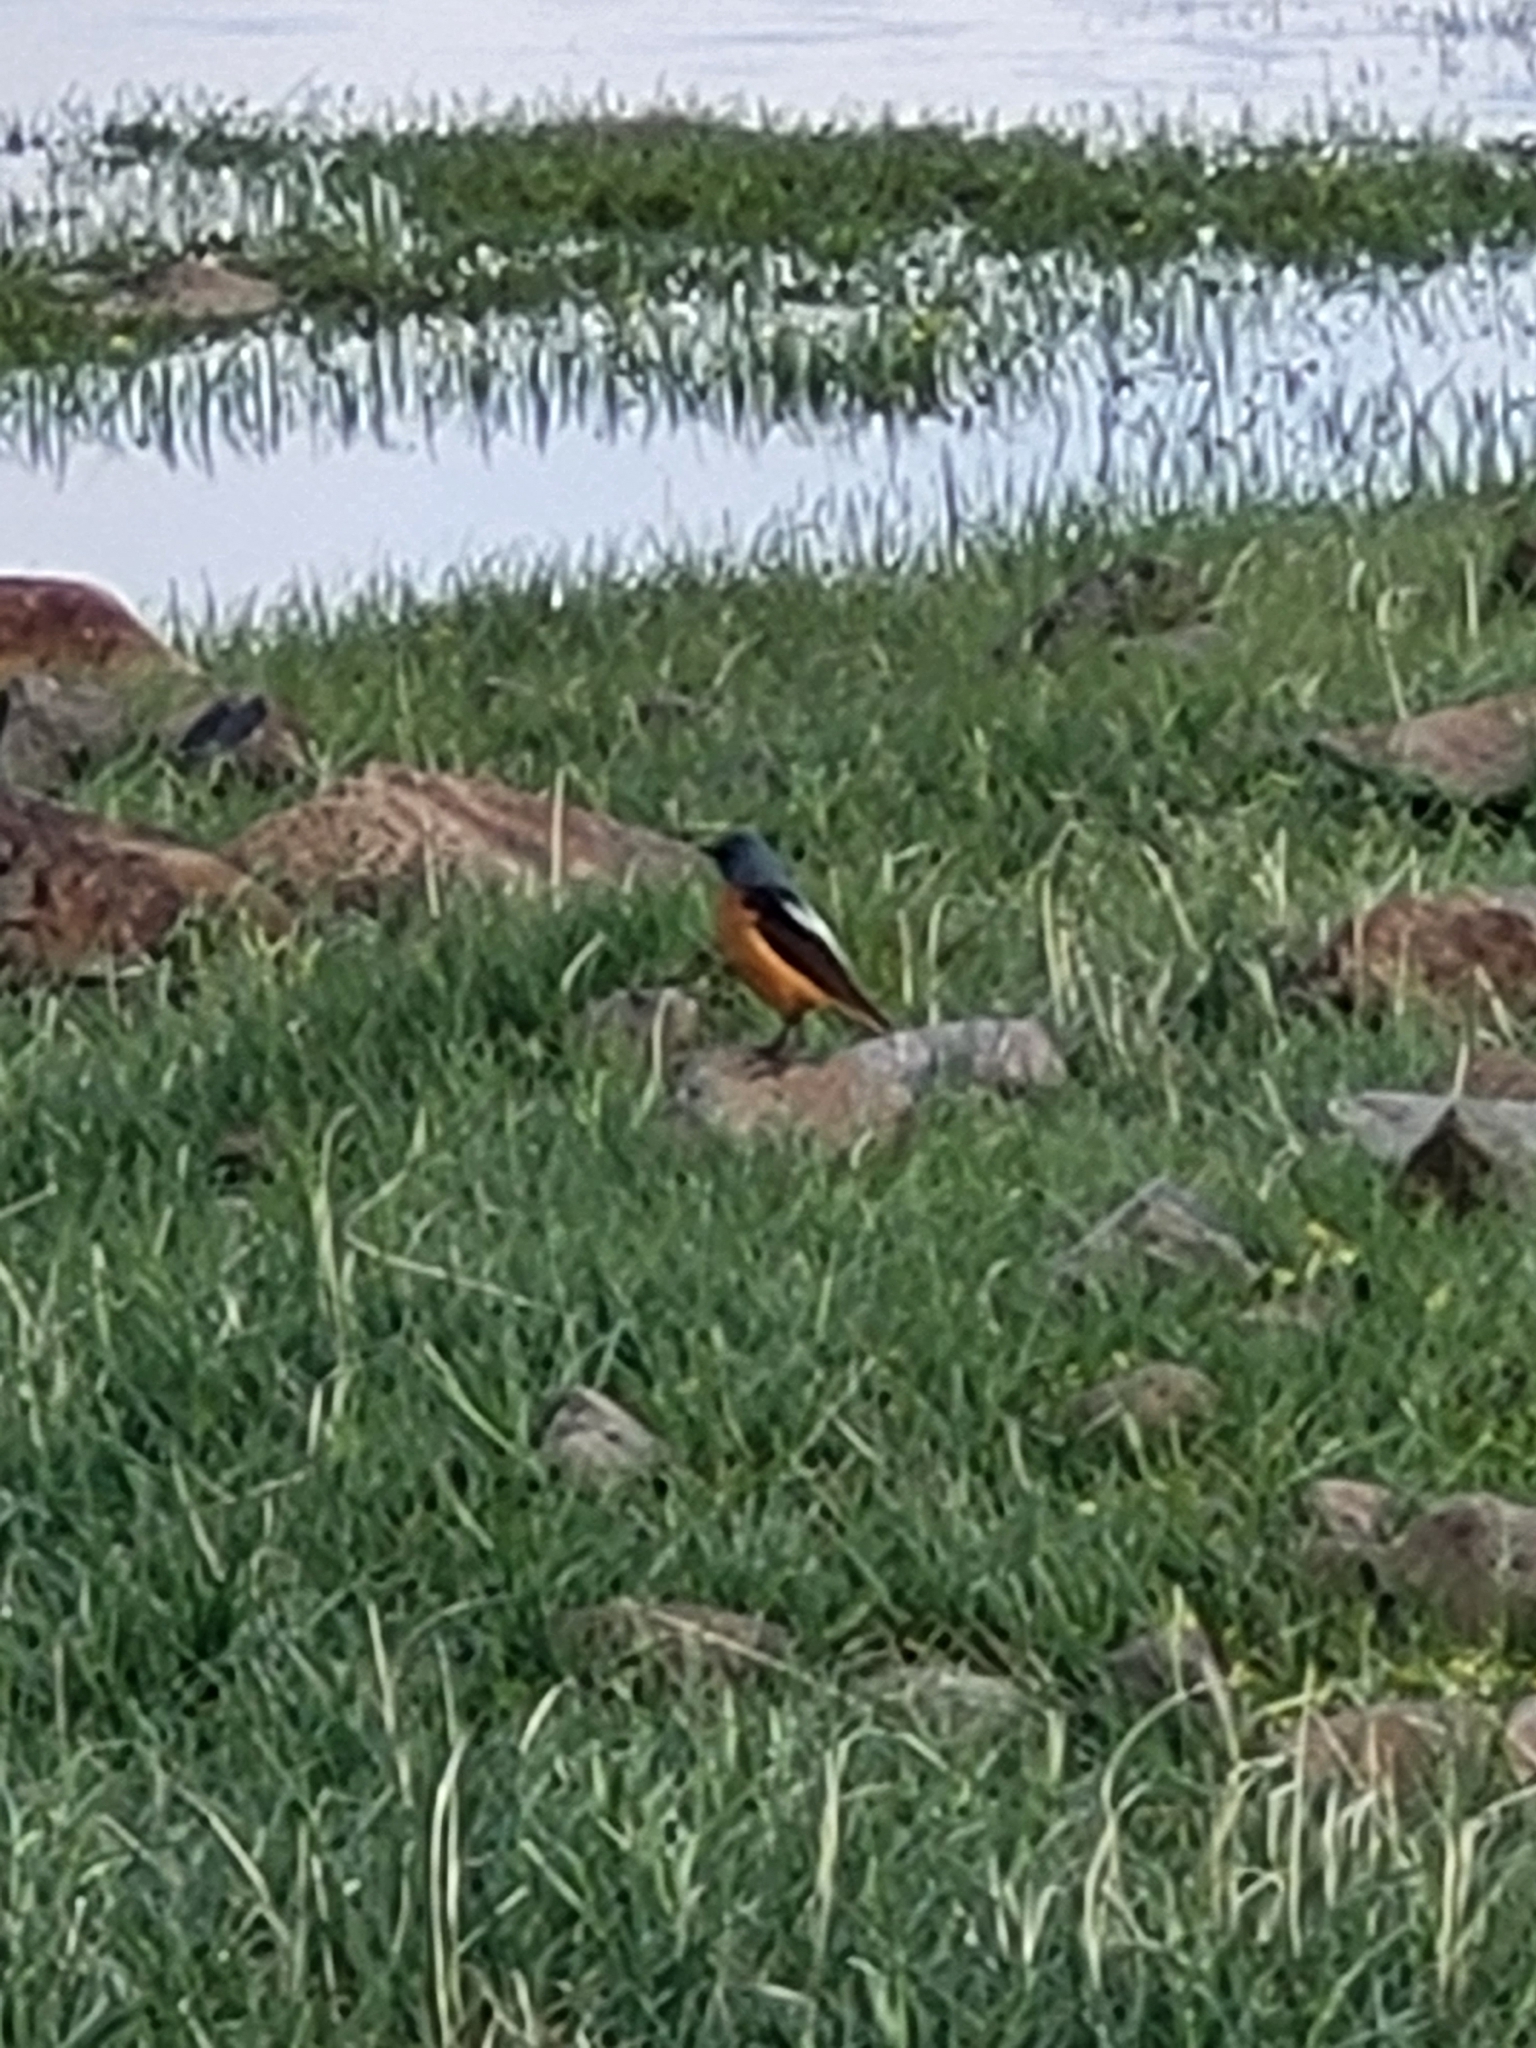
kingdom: Animalia
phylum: Chordata
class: Aves
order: Passeriformes
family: Muscicapidae
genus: Monticola
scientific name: Monticola saxatilis
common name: Rufous-tailed rock thrush
